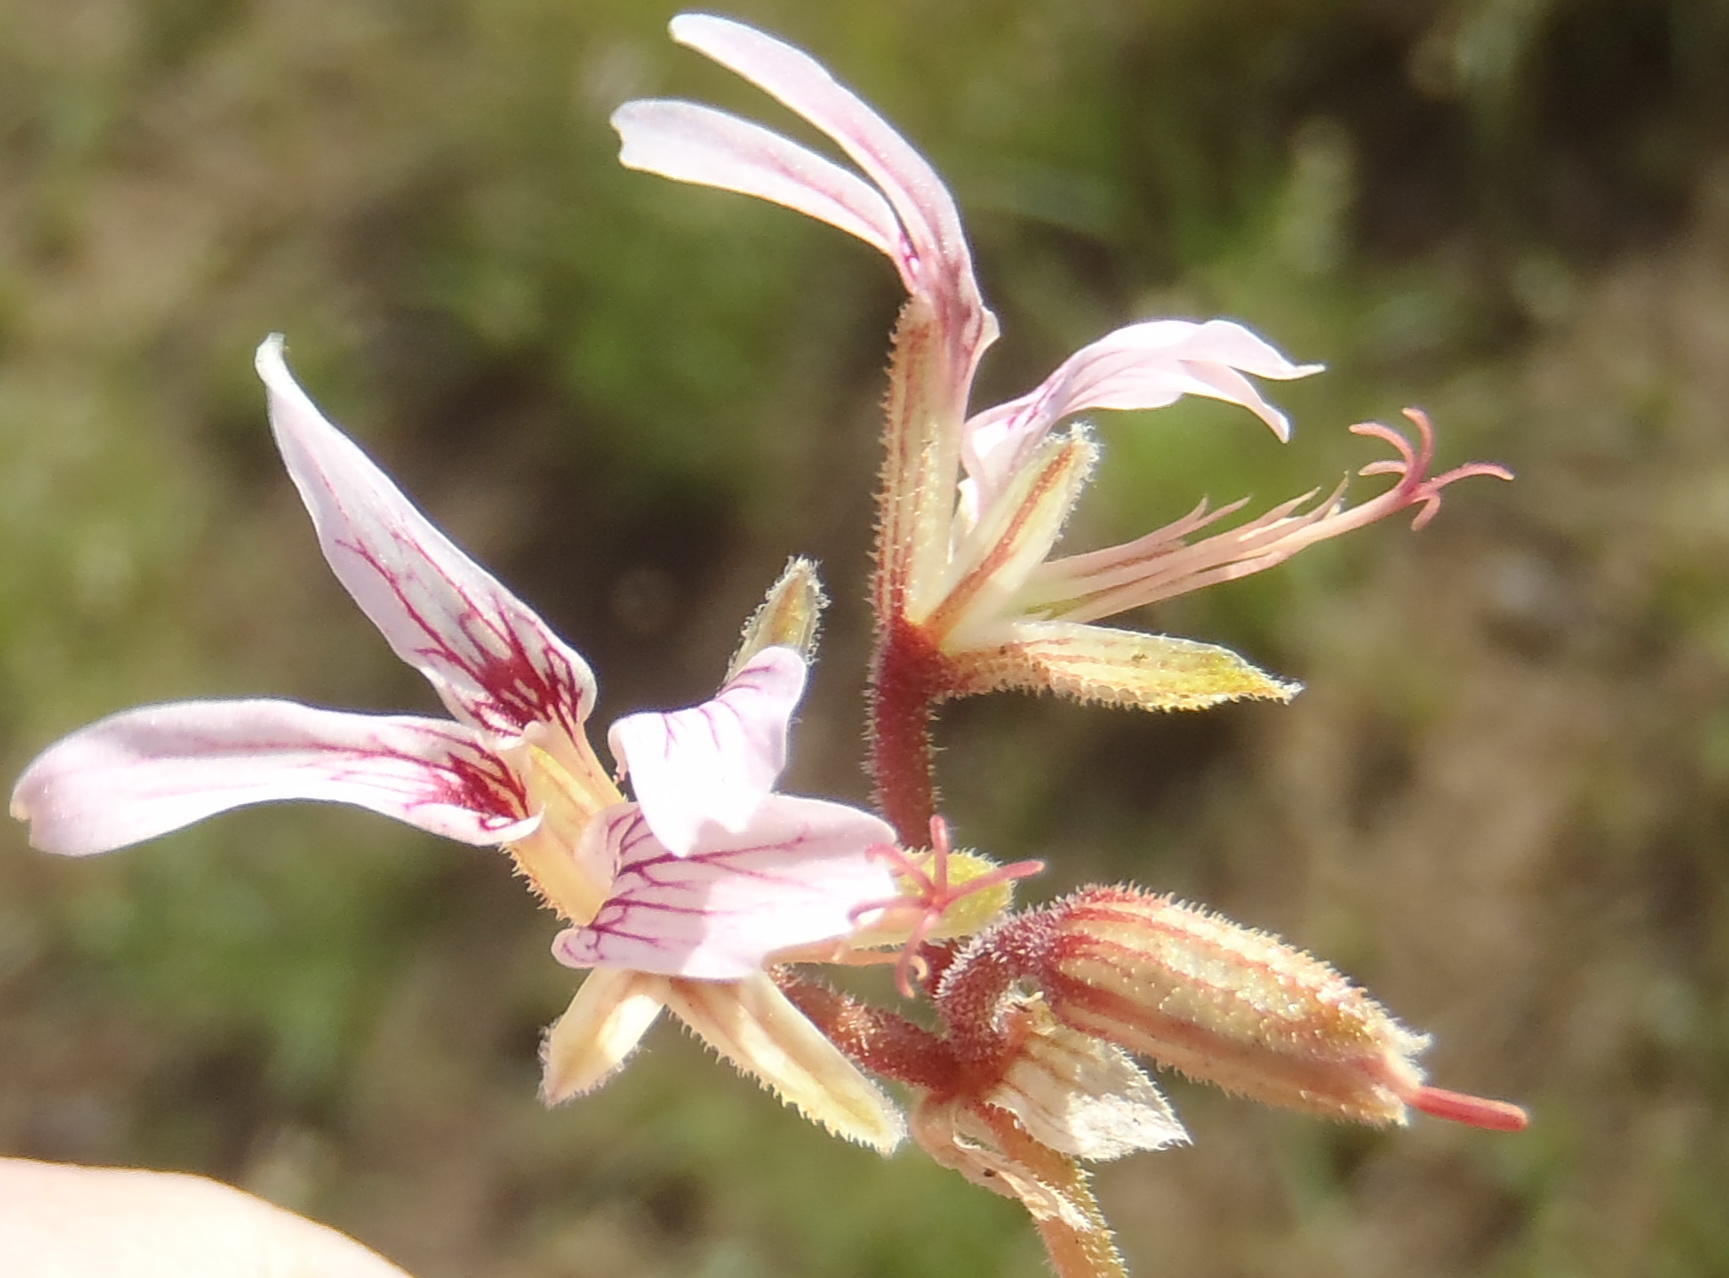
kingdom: Plantae
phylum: Tracheophyta
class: Magnoliopsida
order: Geraniales
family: Geraniaceae
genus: Pelargonium
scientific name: Pelargonium dolomiticum
